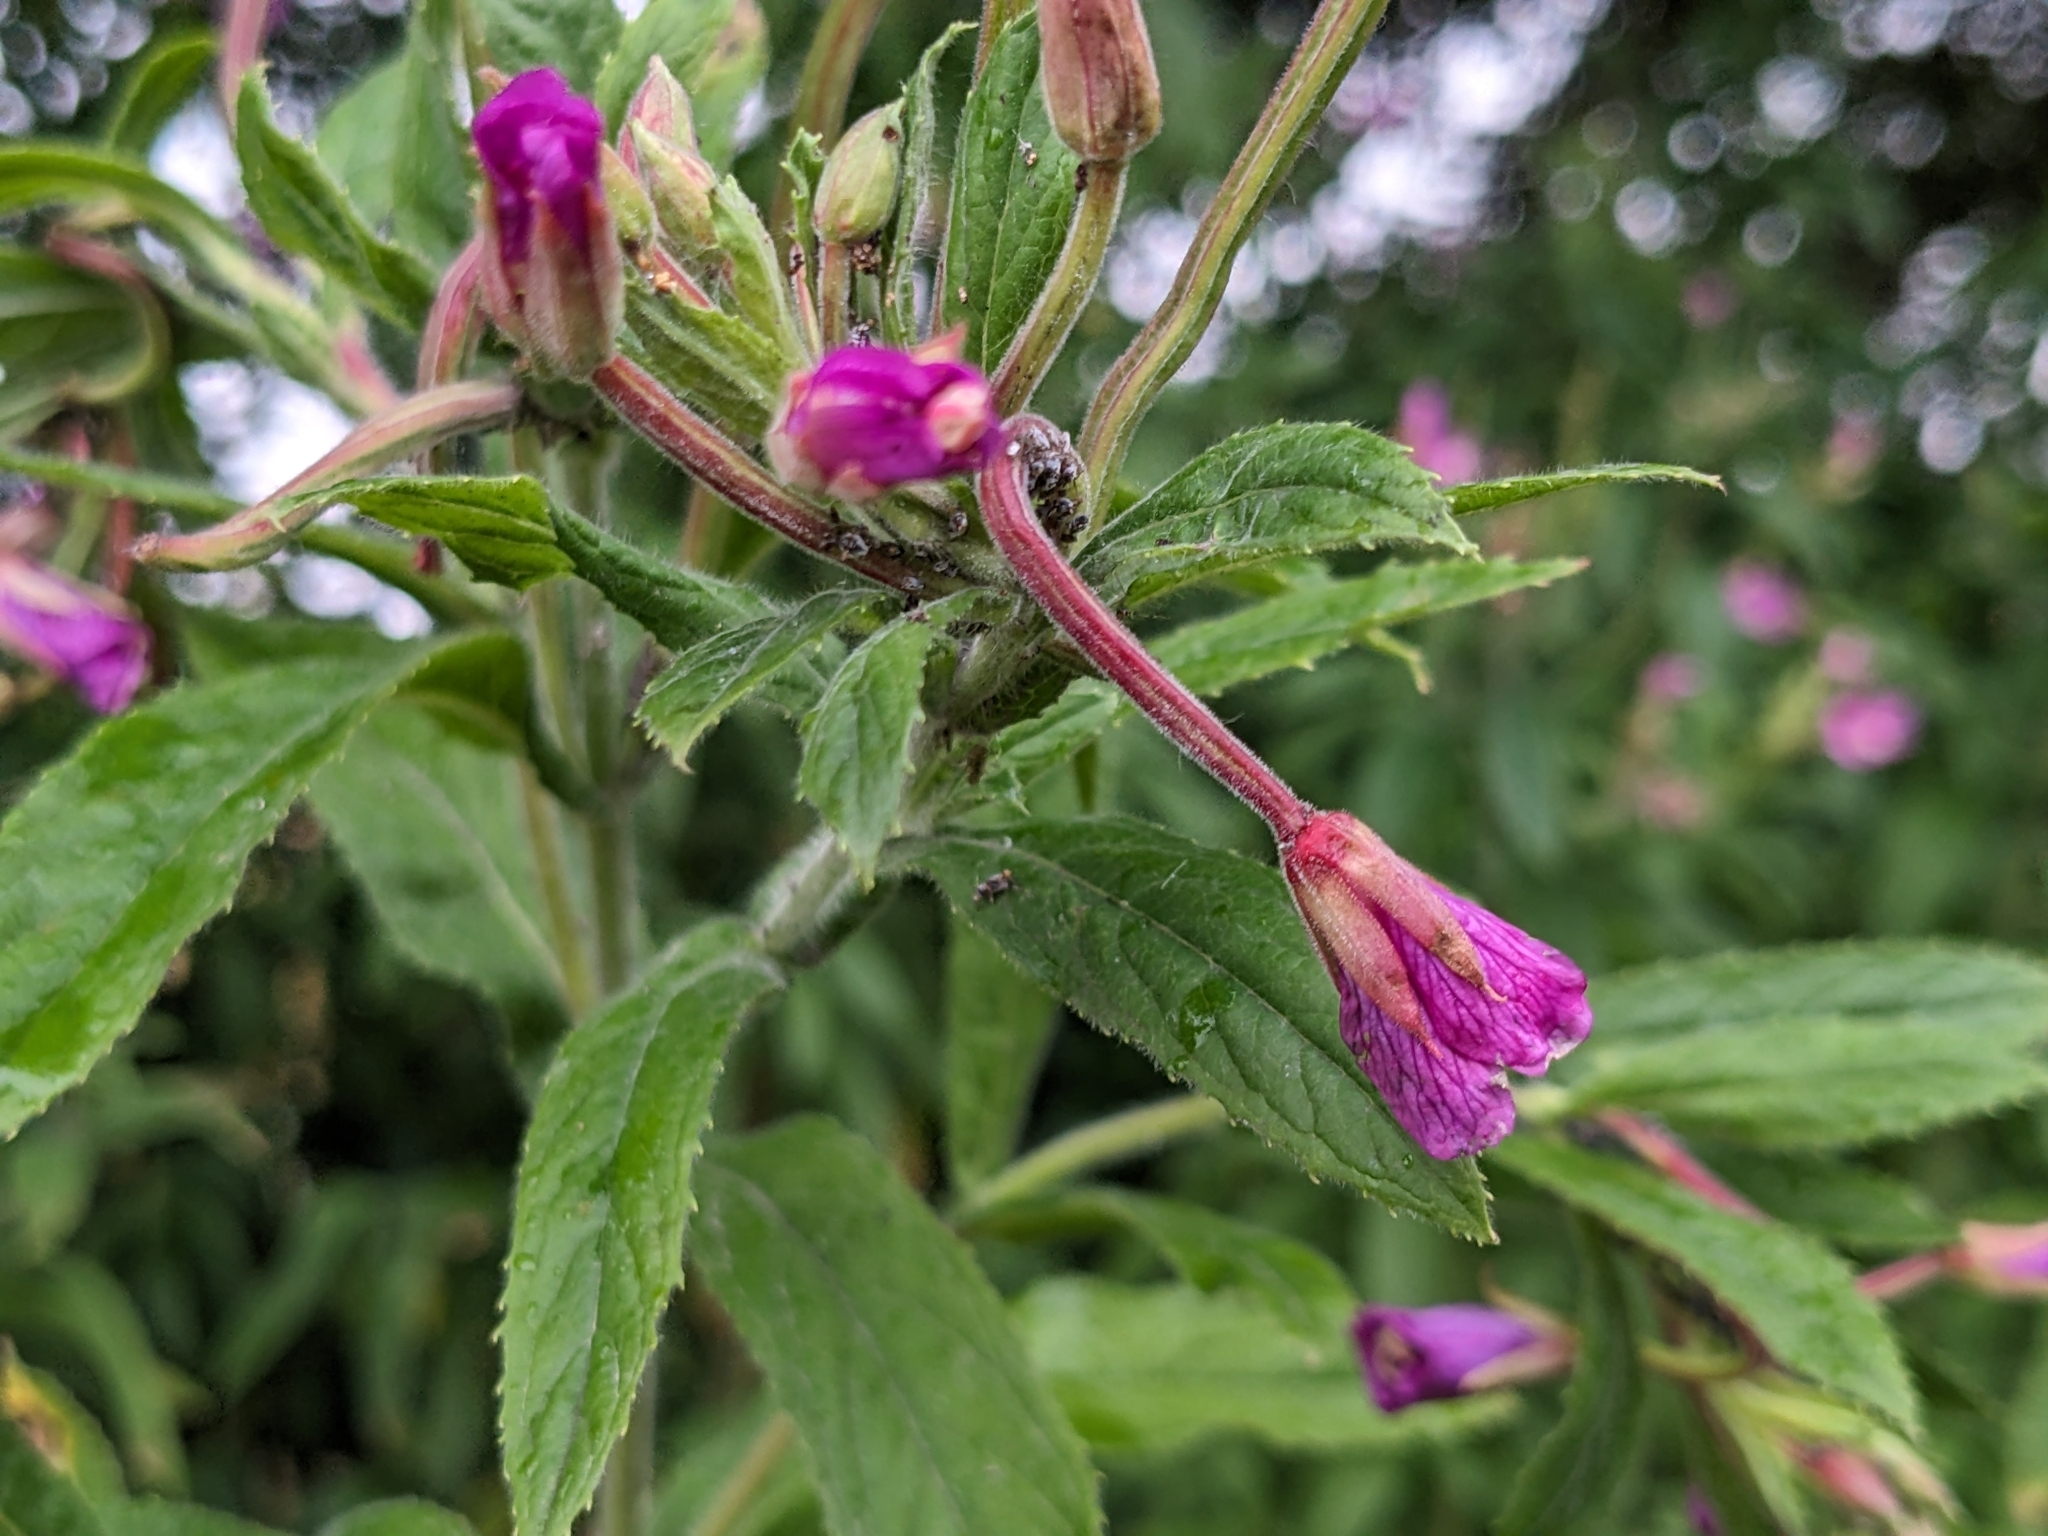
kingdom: Plantae
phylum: Tracheophyta
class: Magnoliopsida
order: Myrtales
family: Onagraceae
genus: Epilobium
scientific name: Epilobium hirsutum
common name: Great willowherb
